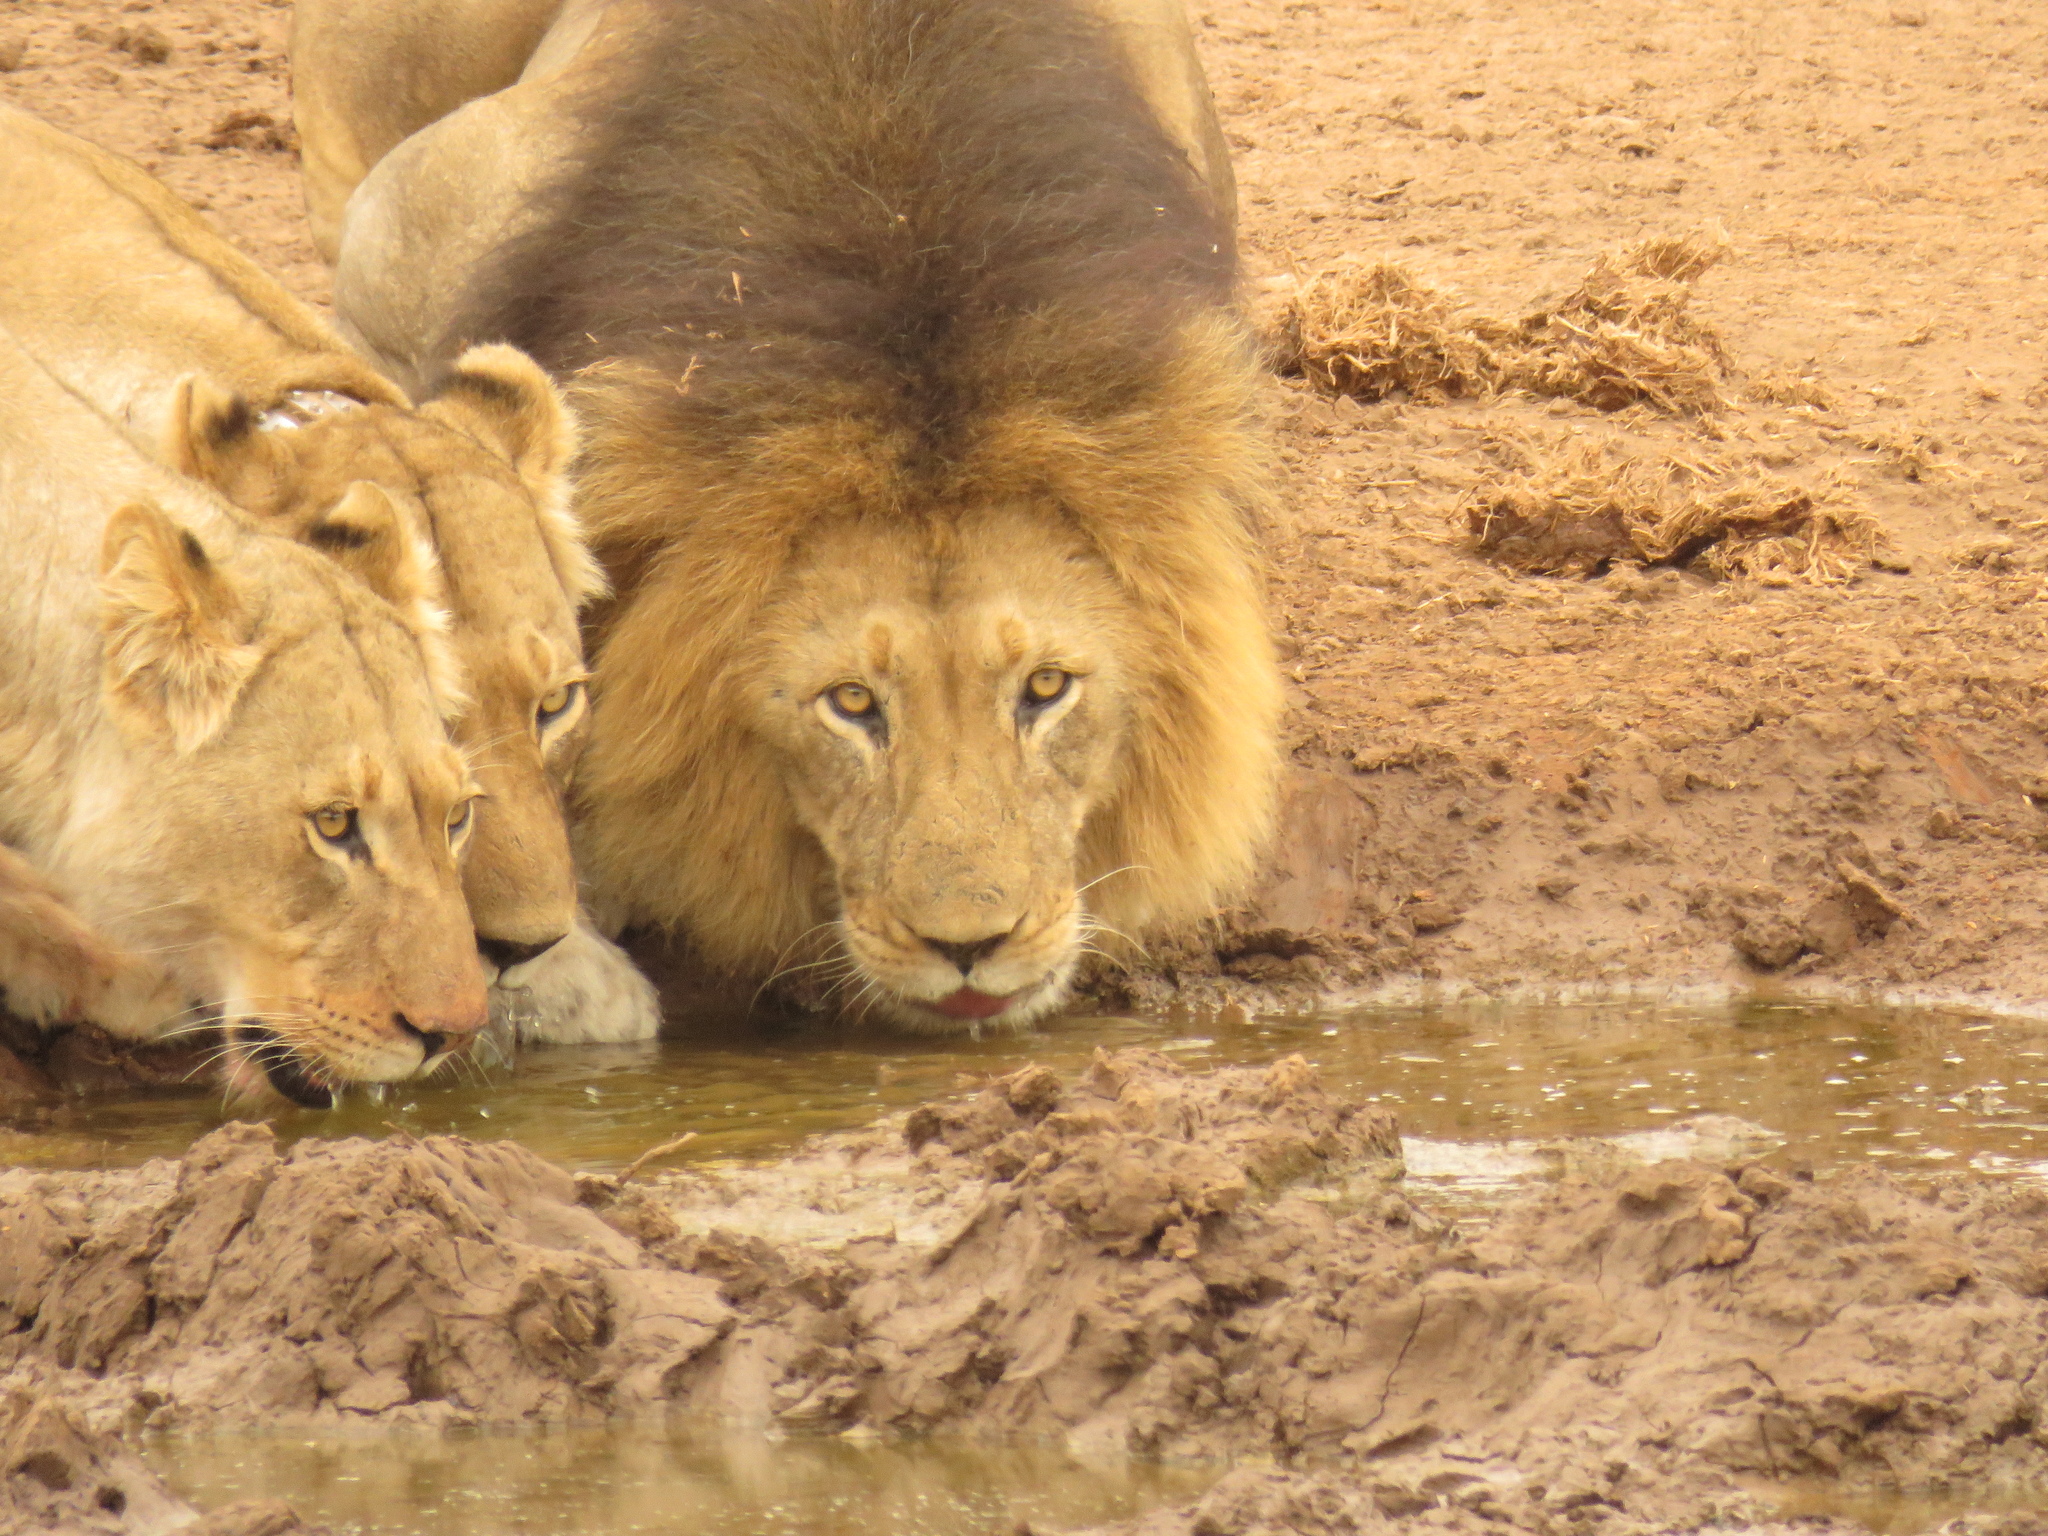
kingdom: Animalia
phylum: Chordata
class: Mammalia
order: Carnivora
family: Felidae
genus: Panthera
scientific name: Panthera leo
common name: Lion
